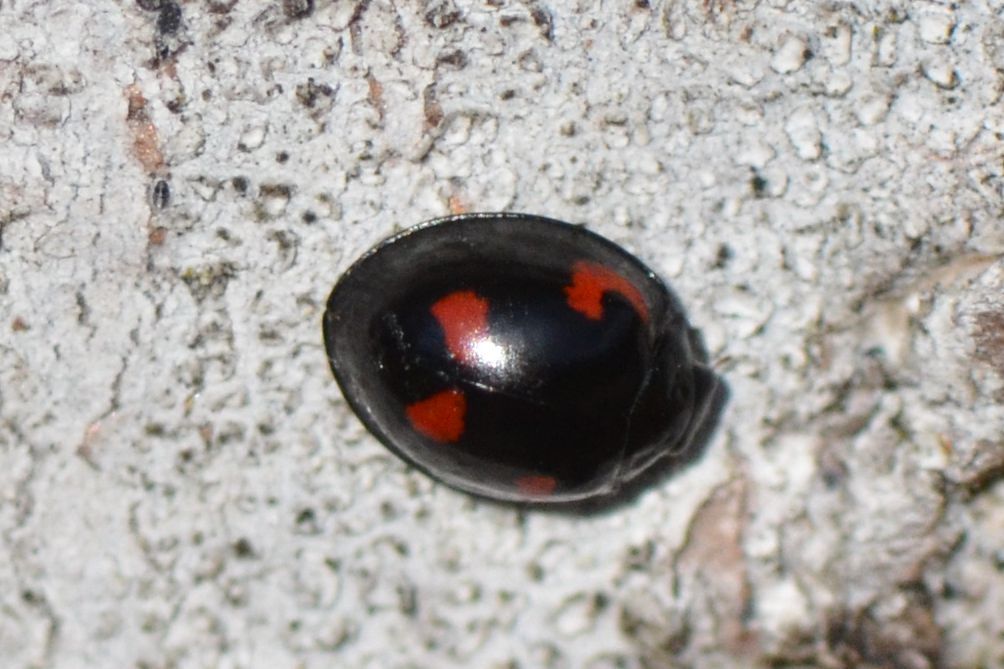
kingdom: Animalia
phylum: Arthropoda
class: Insecta
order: Coleoptera
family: Coccinellidae
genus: Brumus
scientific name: Brumus quadripustulatus
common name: Ladybird beetle
